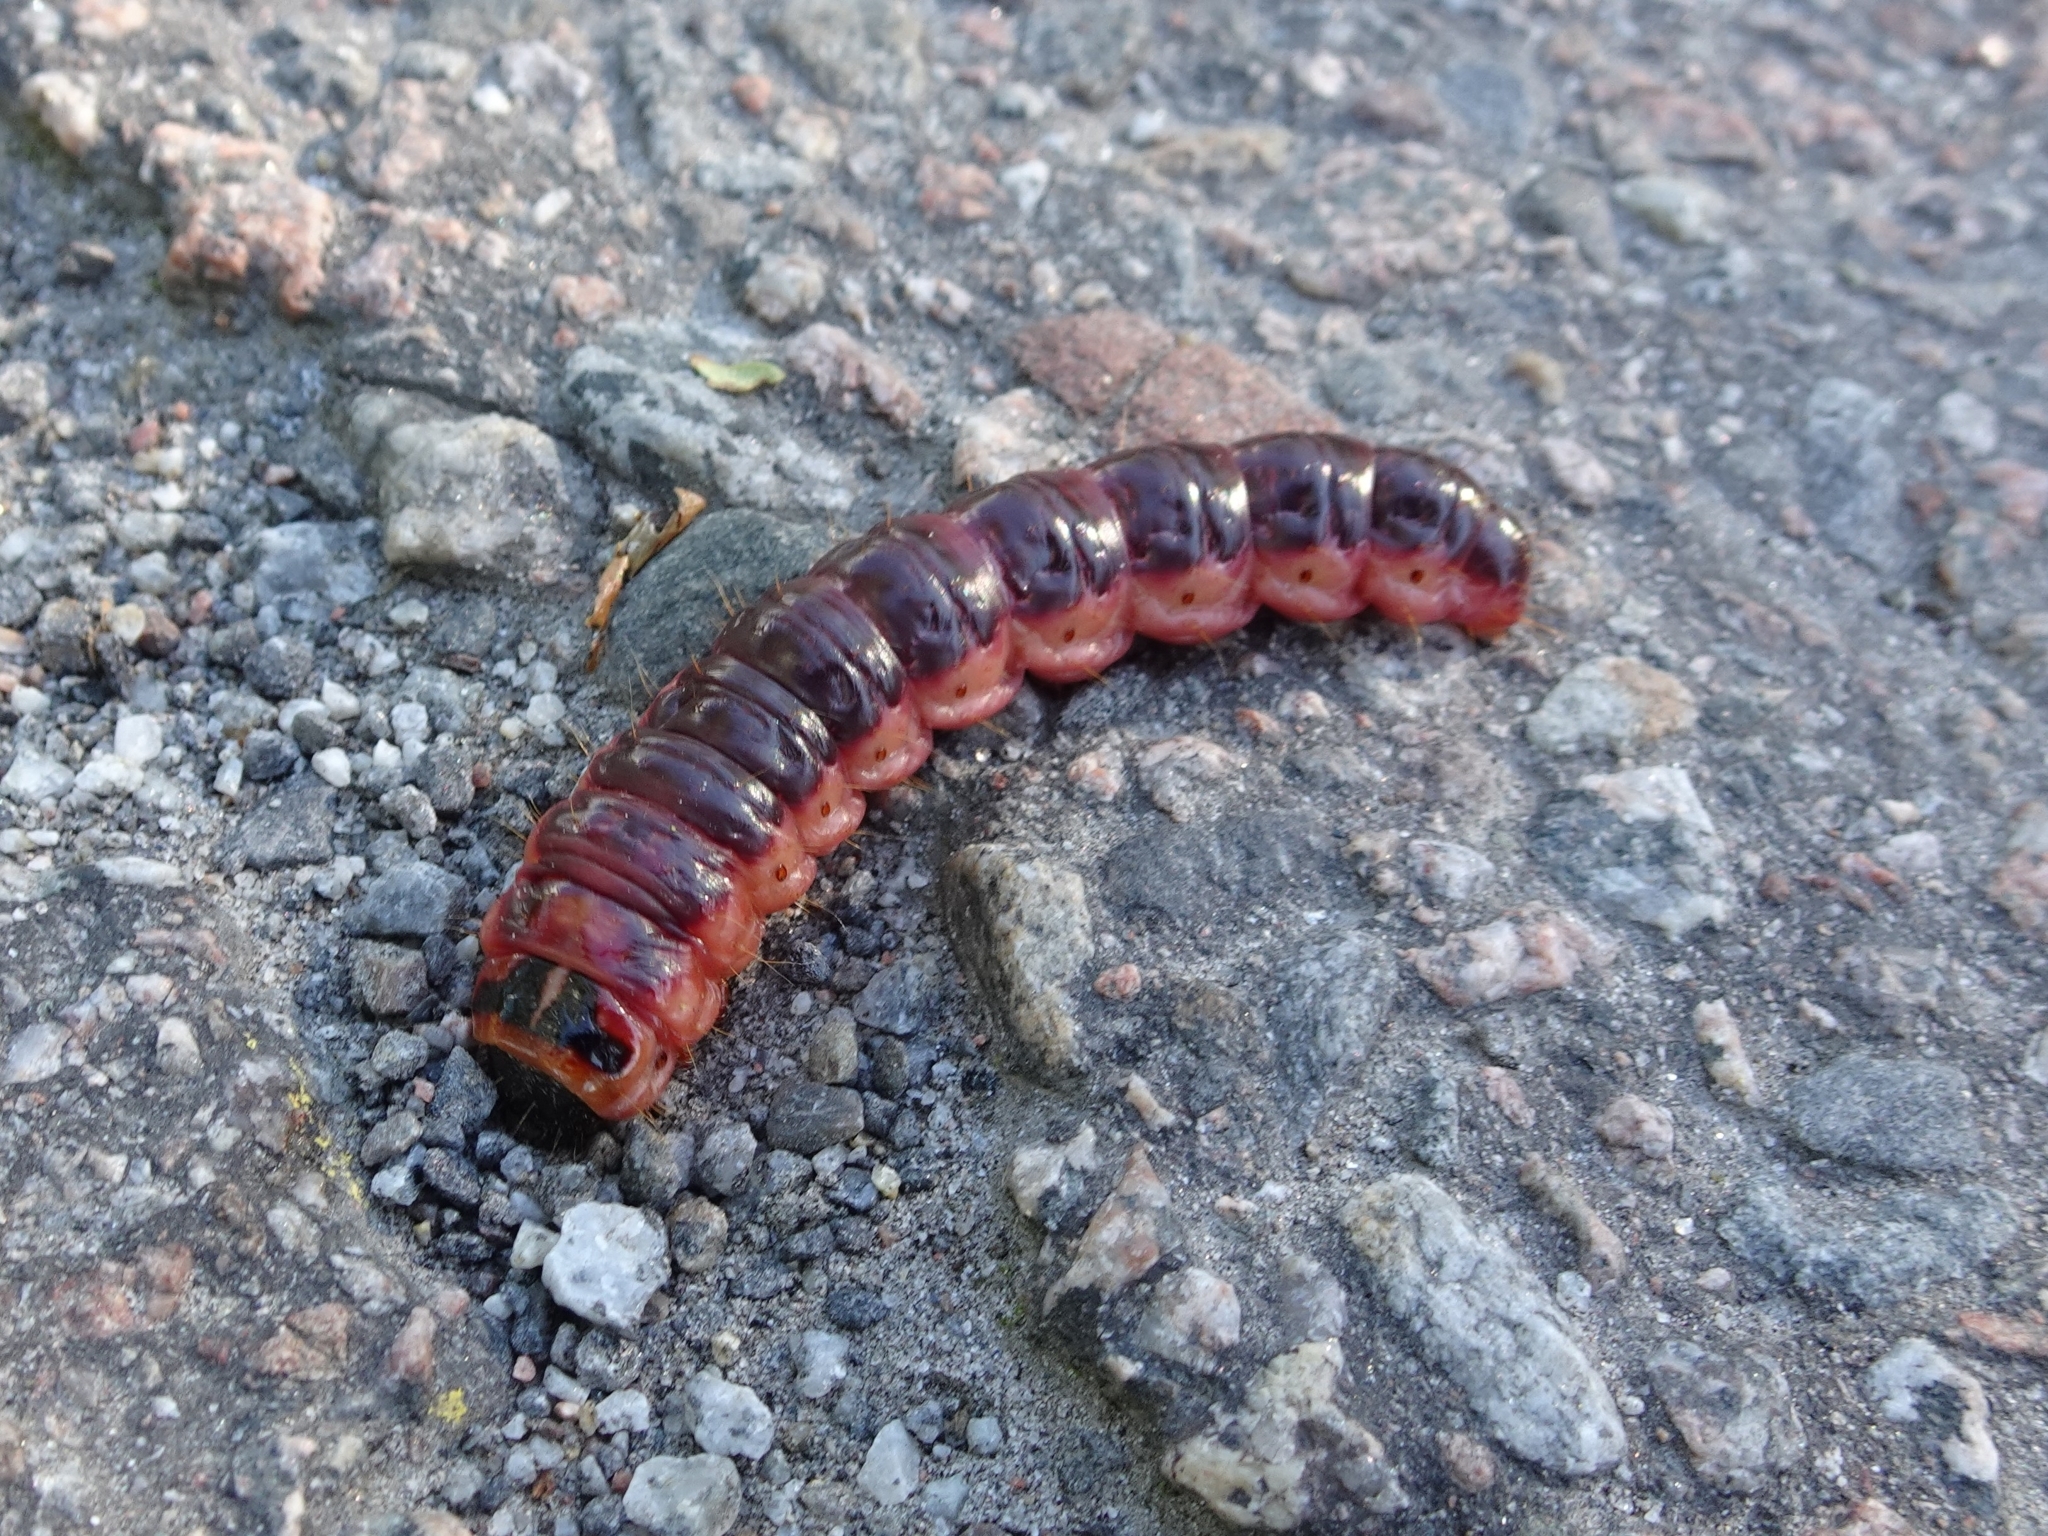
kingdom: Animalia
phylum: Arthropoda
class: Insecta
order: Lepidoptera
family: Cossidae
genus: Cossus
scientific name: Cossus cossus
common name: Goat moth
